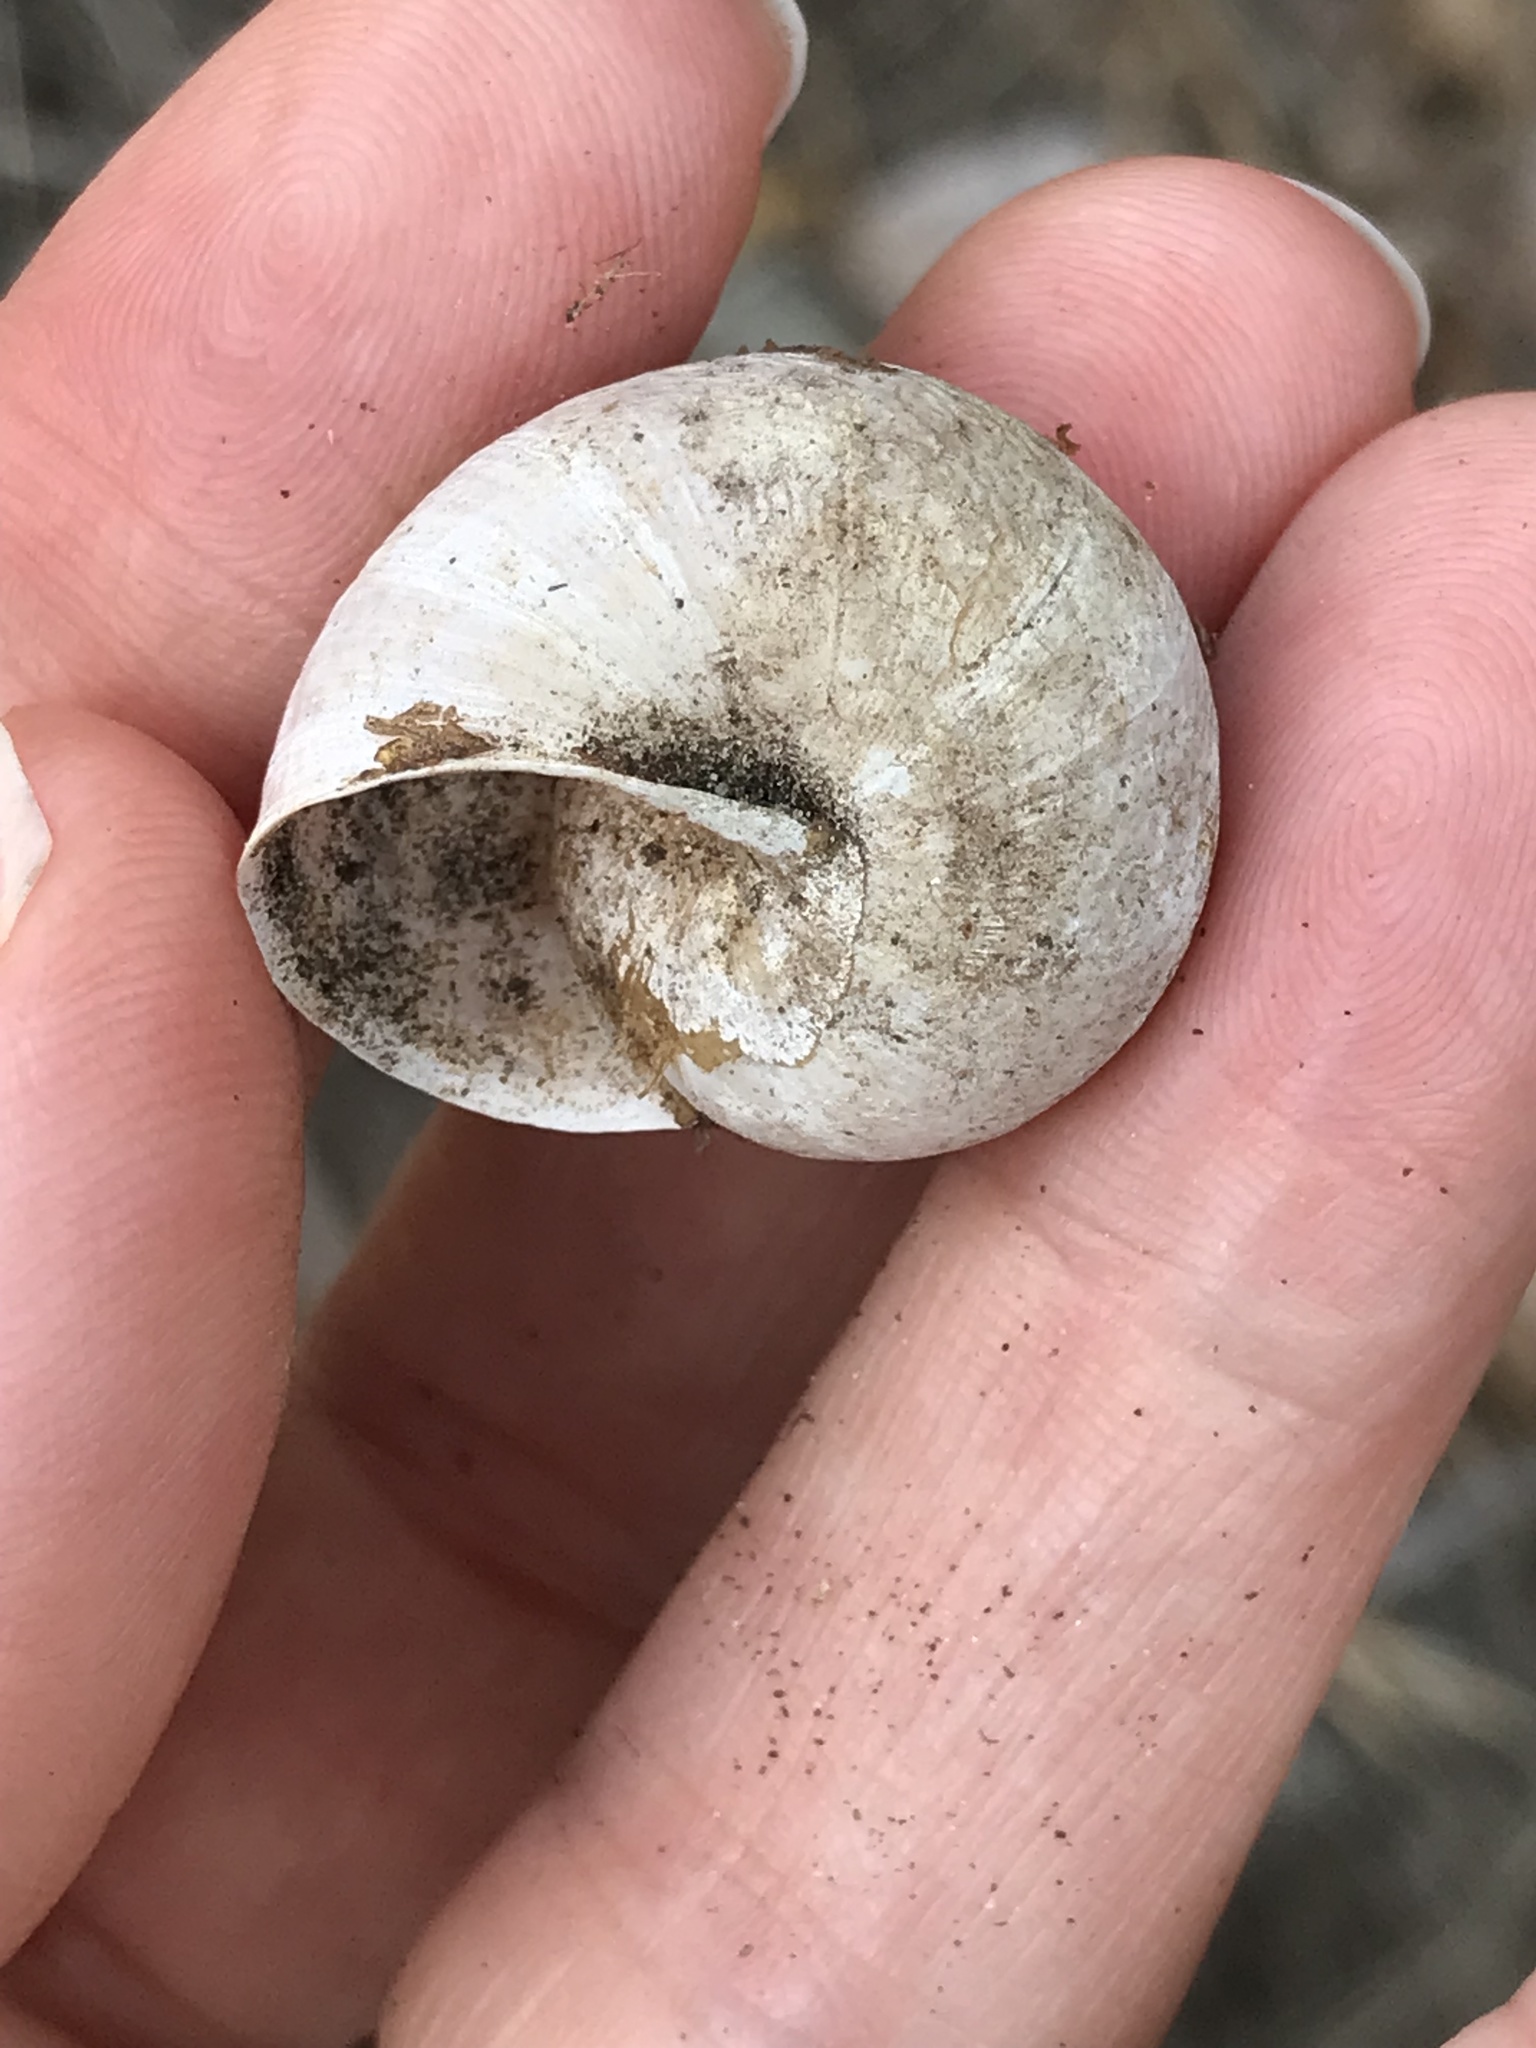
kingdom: Animalia
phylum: Mollusca
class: Gastropoda
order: Stylommatophora
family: Xanthonychidae
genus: Helminthoglypta
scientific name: Helminthoglypta tudiculata
